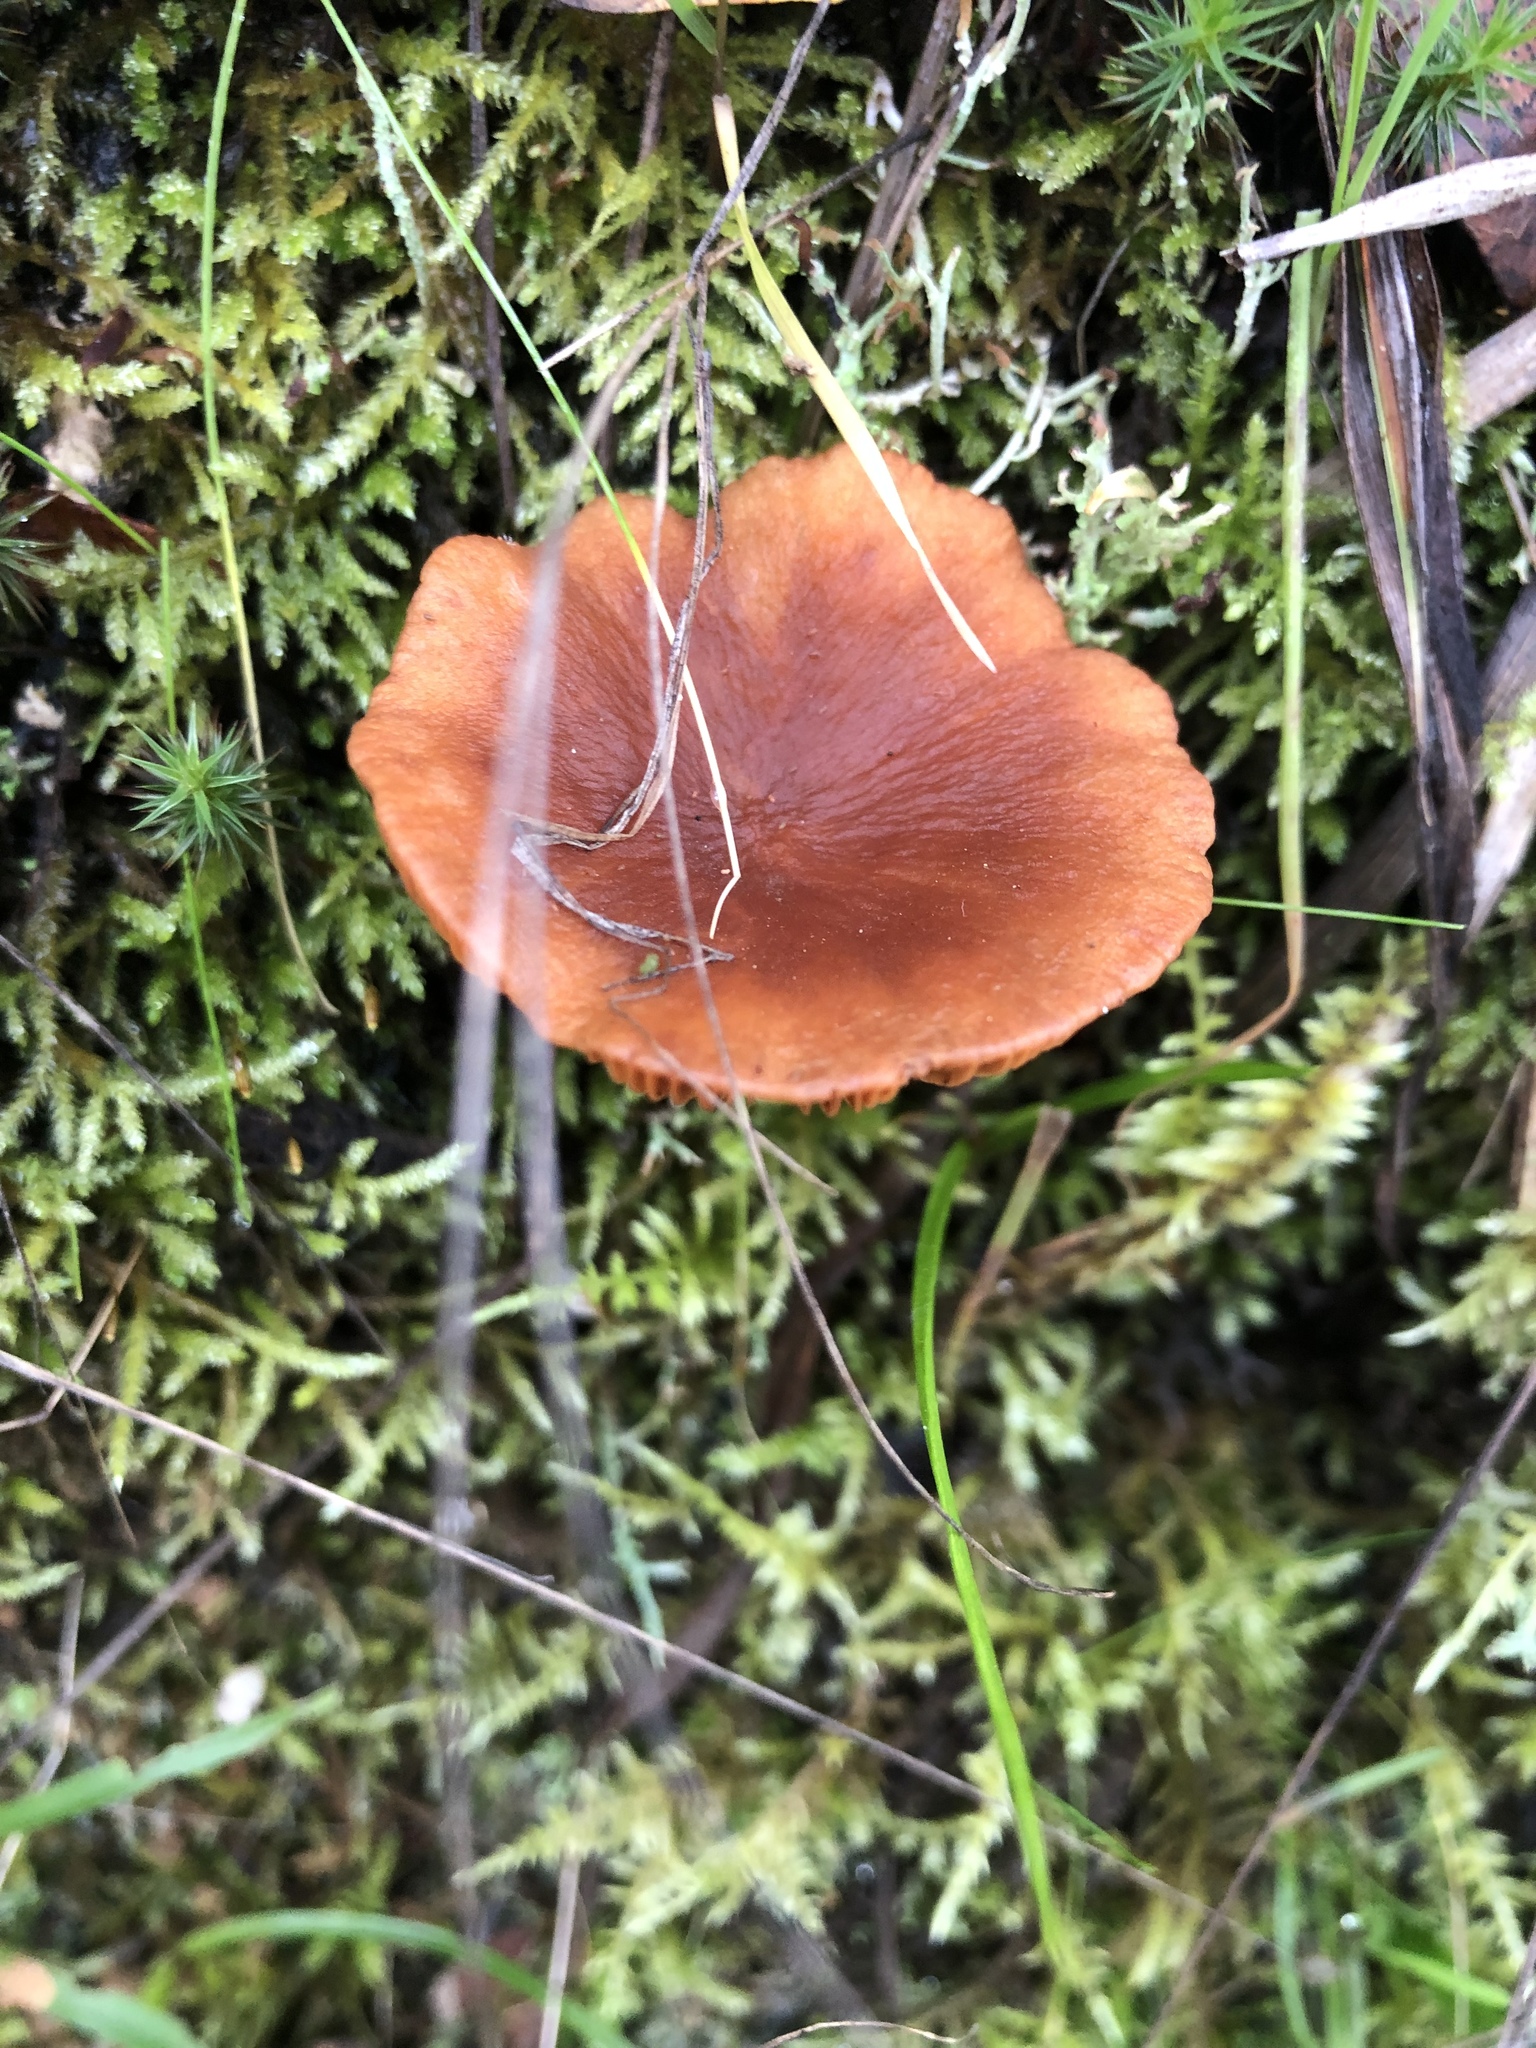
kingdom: Fungi
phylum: Basidiomycota
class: Agaricomycetes
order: Russulales
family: Russulaceae
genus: Lactarius
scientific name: Lactarius rufulus
